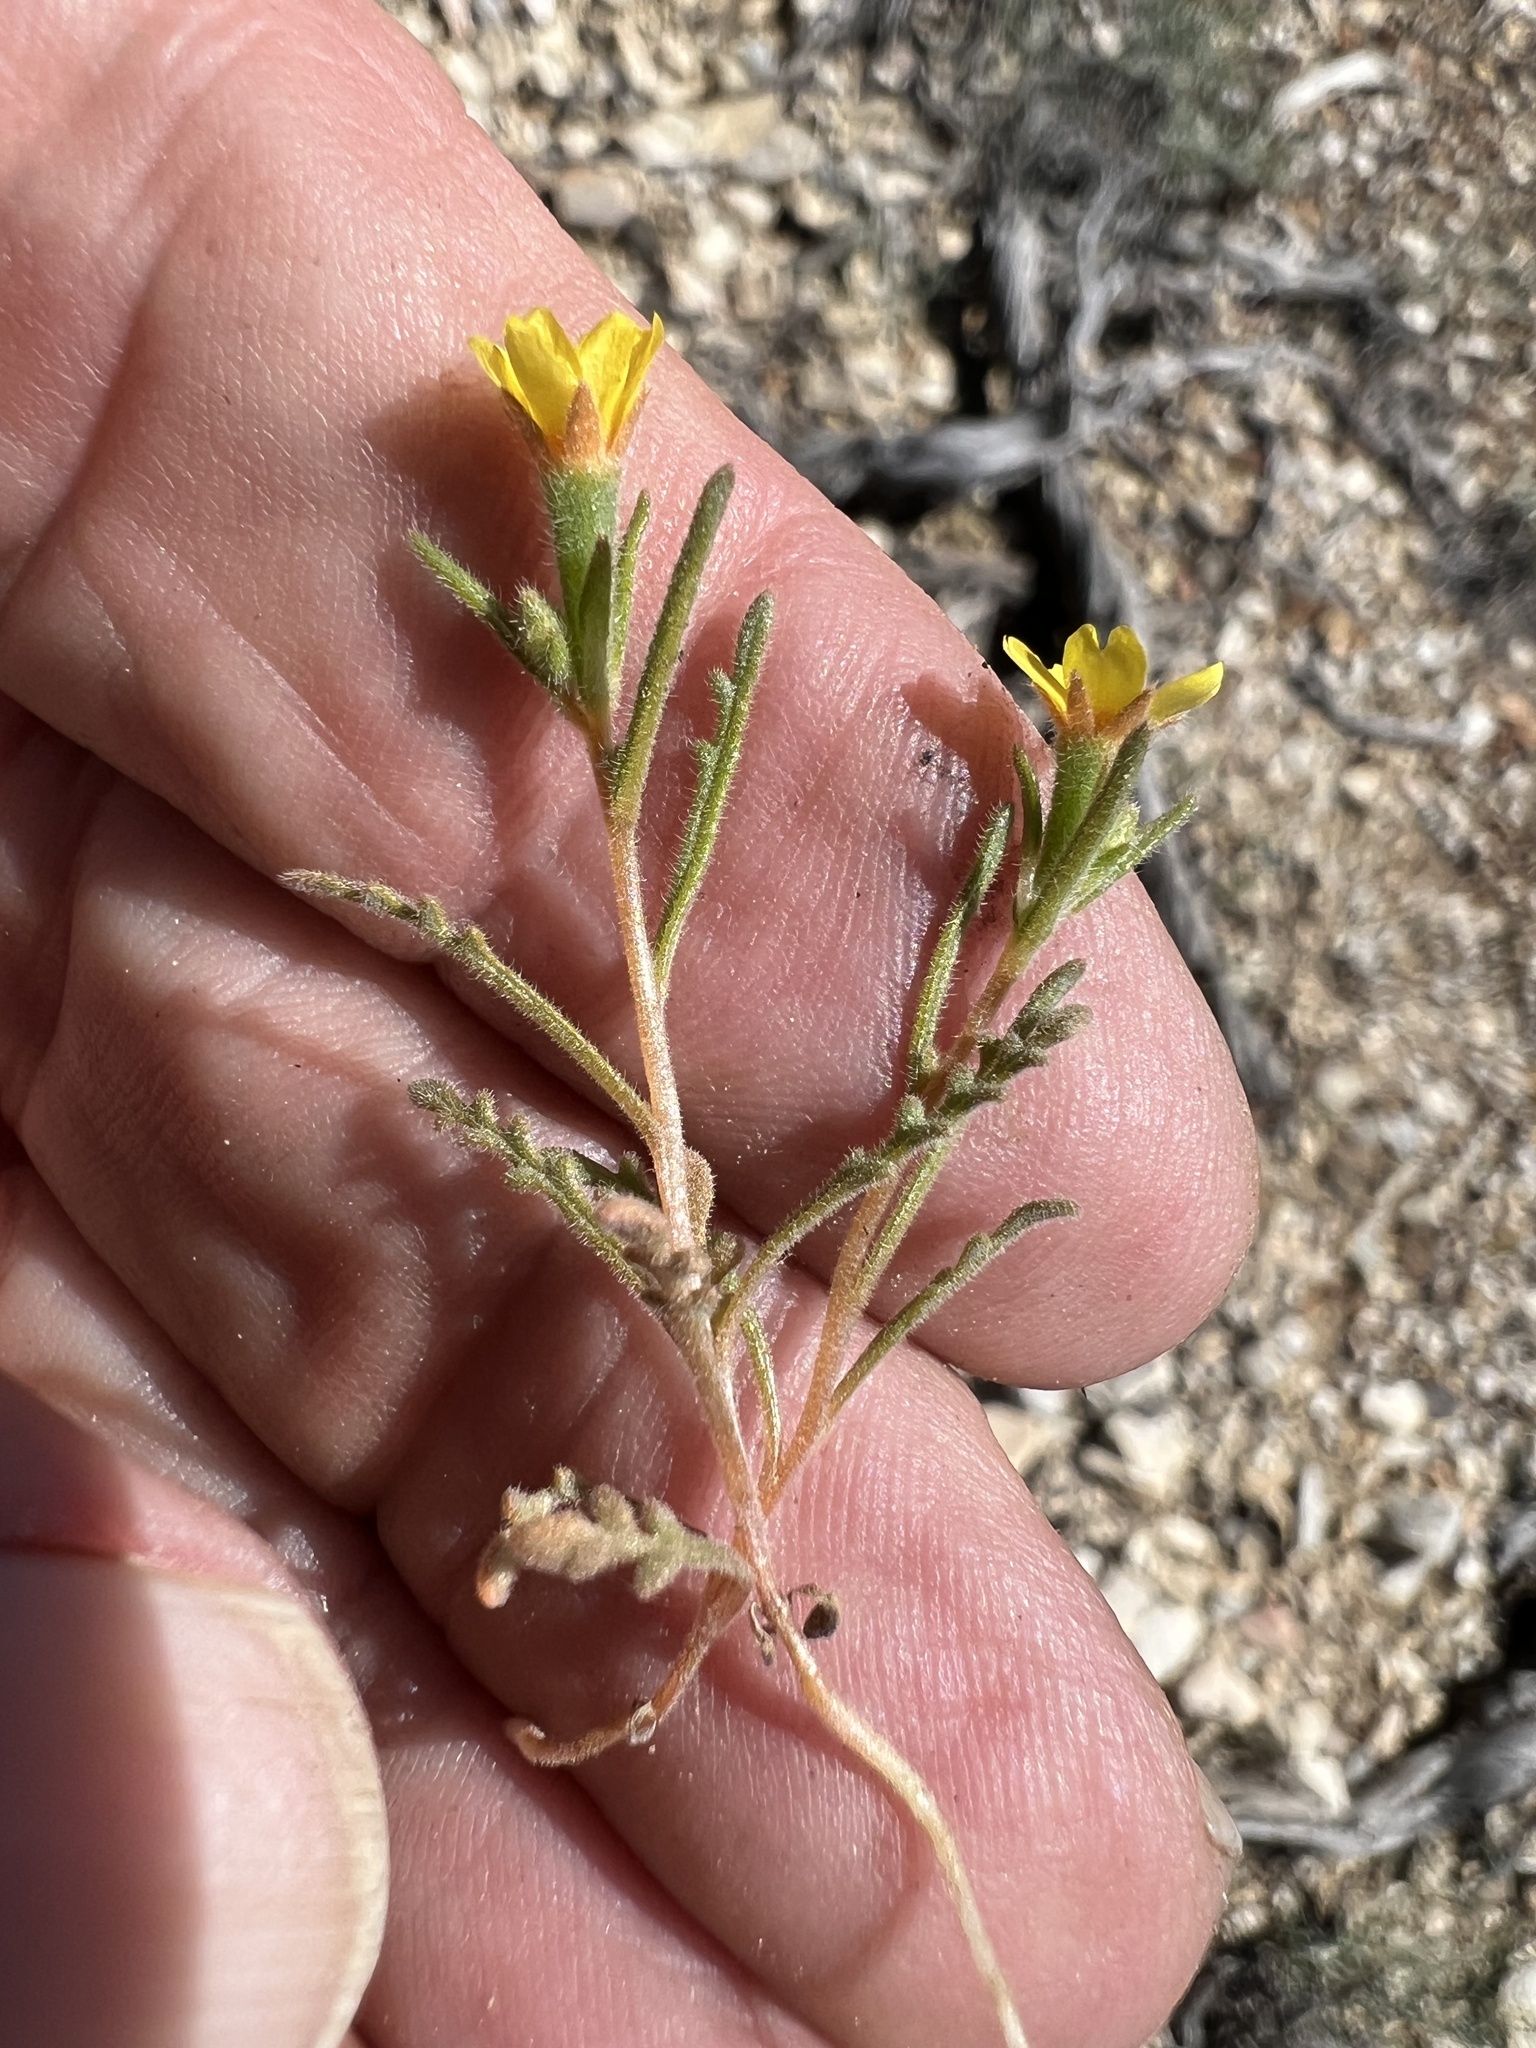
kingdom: Plantae
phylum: Tracheophyta
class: Magnoliopsida
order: Cornales
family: Loasaceae
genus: Mentzelia
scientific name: Mentzelia albicaulis
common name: White-stem blazingstar
